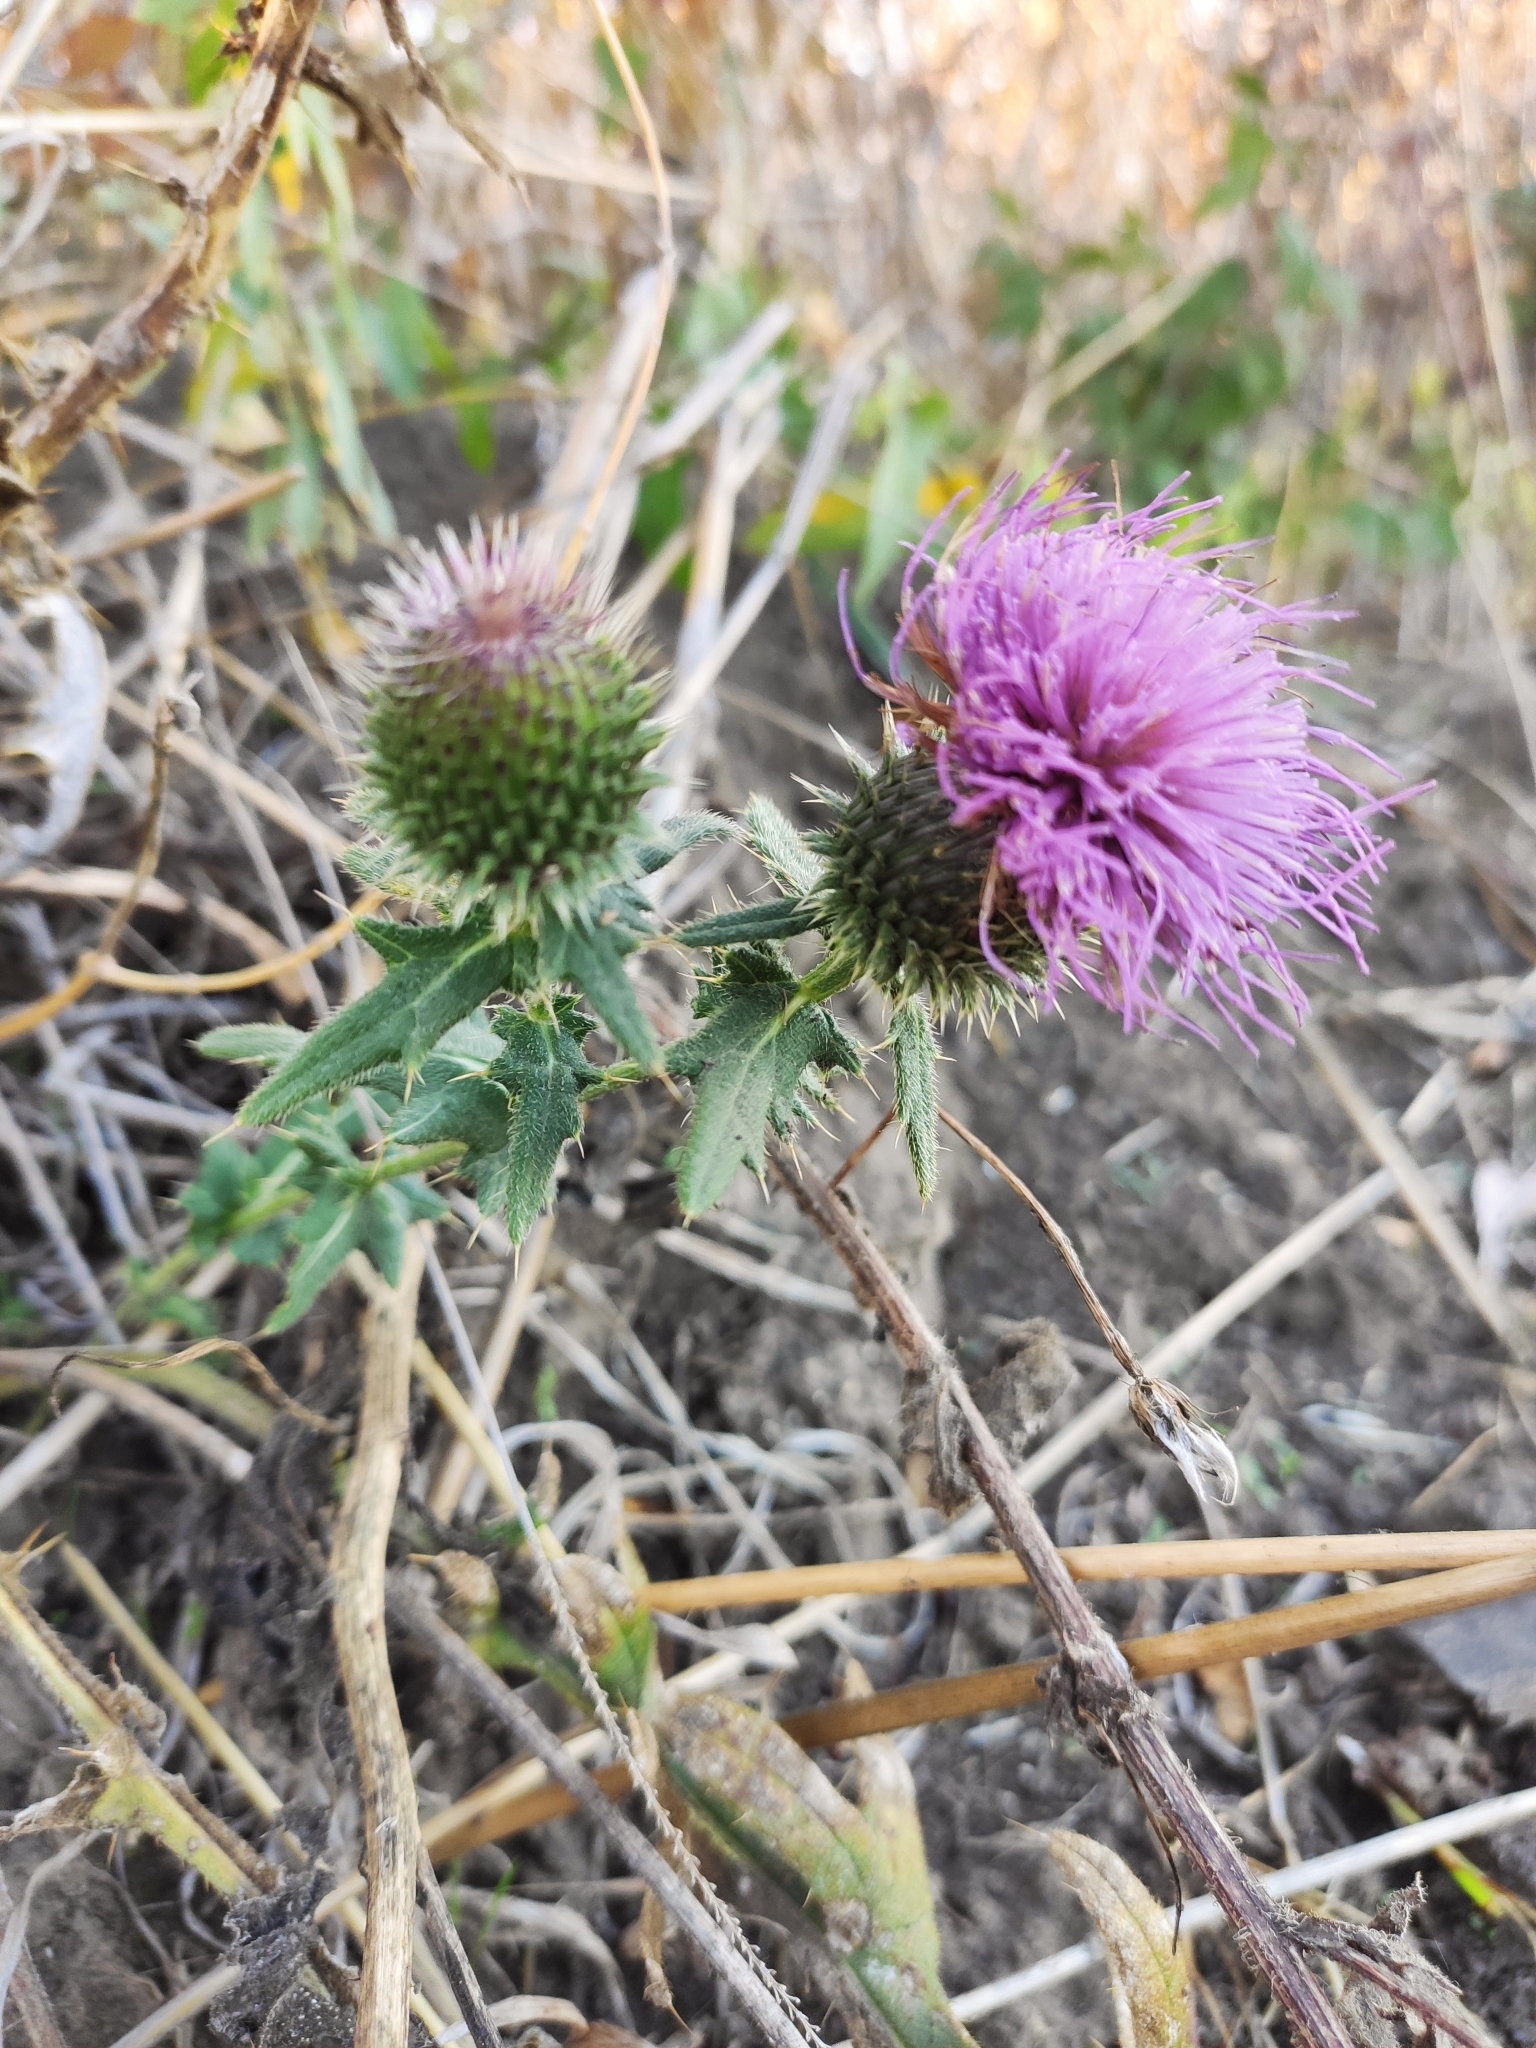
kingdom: Plantae
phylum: Tracheophyta
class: Magnoliopsida
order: Asterales
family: Asteraceae
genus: Cirsium
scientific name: Cirsium serrulatum
